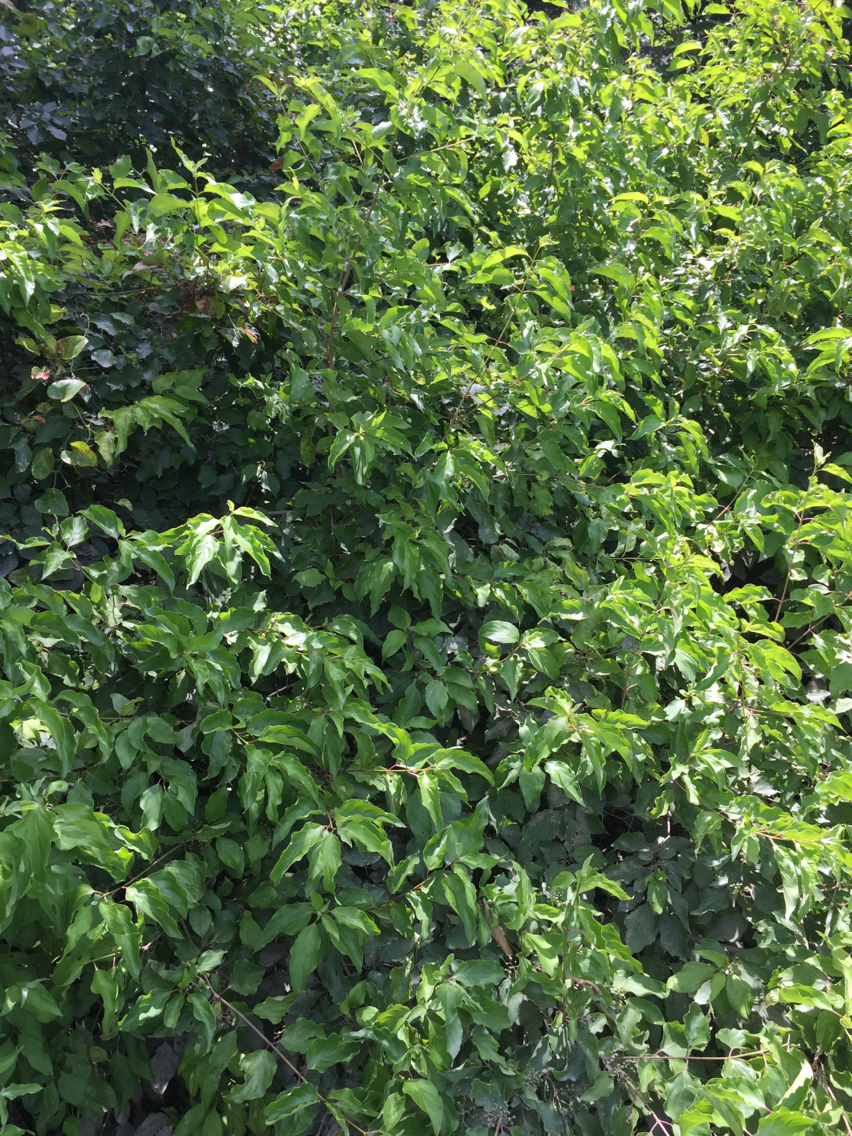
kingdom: Plantae
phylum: Tracheophyta
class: Magnoliopsida
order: Cornales
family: Cornaceae
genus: Cornus
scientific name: Cornus drummondii
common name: Rough-leaf dogwood
